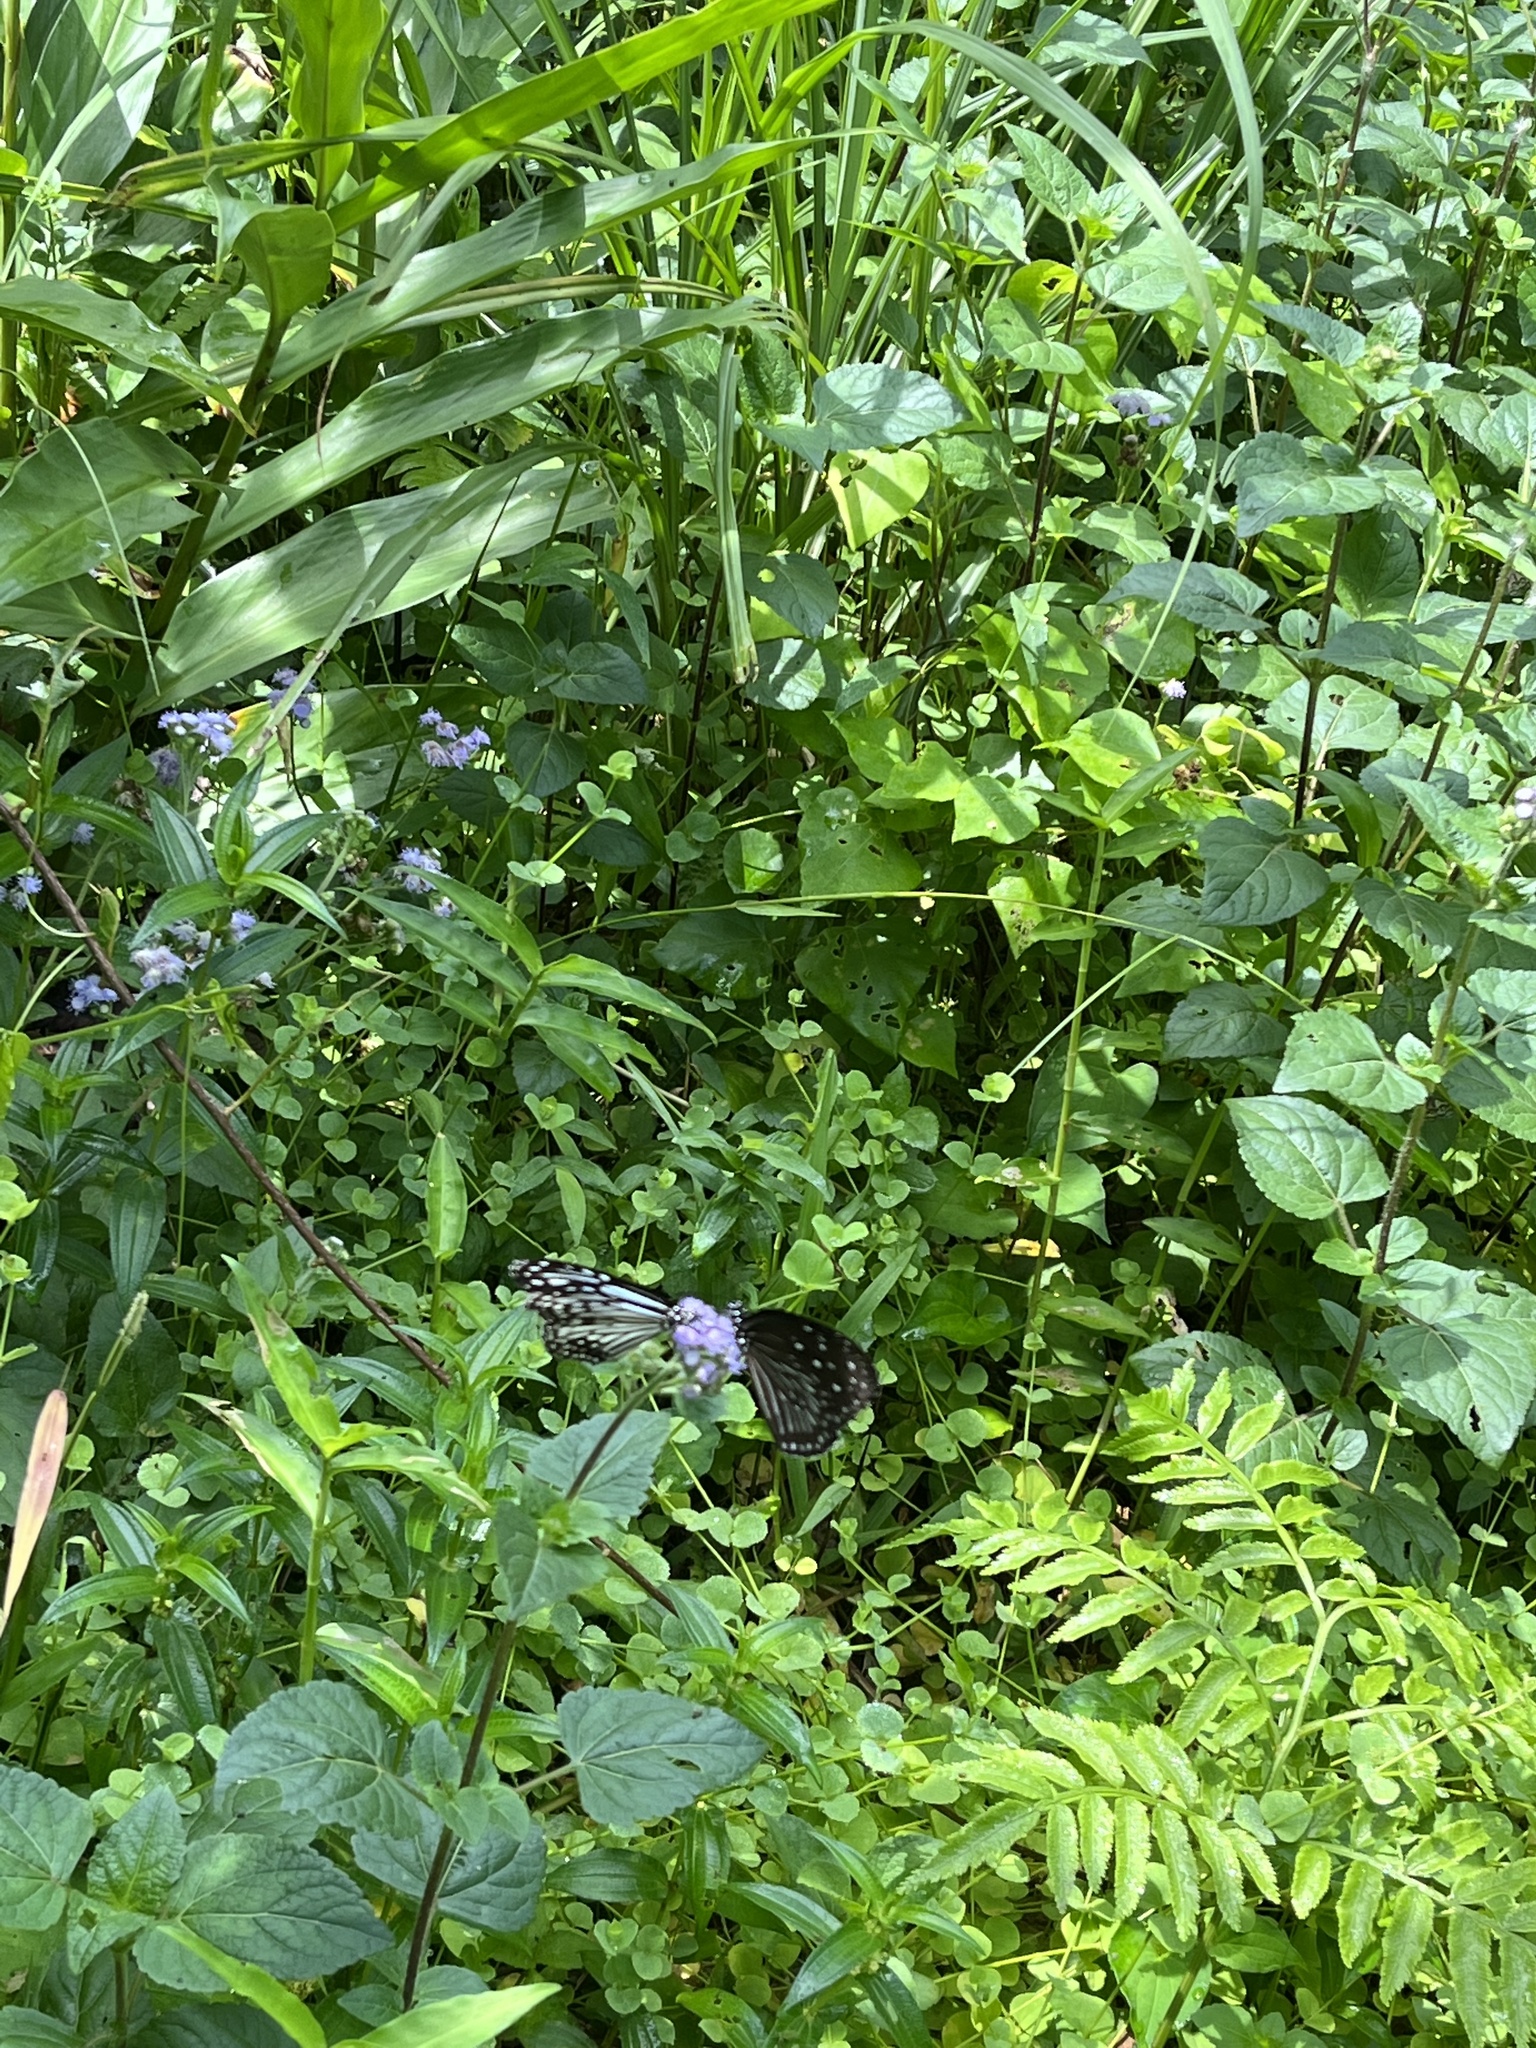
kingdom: Animalia
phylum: Arthropoda
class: Insecta
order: Lepidoptera
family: Nymphalidae
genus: Parantica
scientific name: Parantica aglea
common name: Glassy tiger
